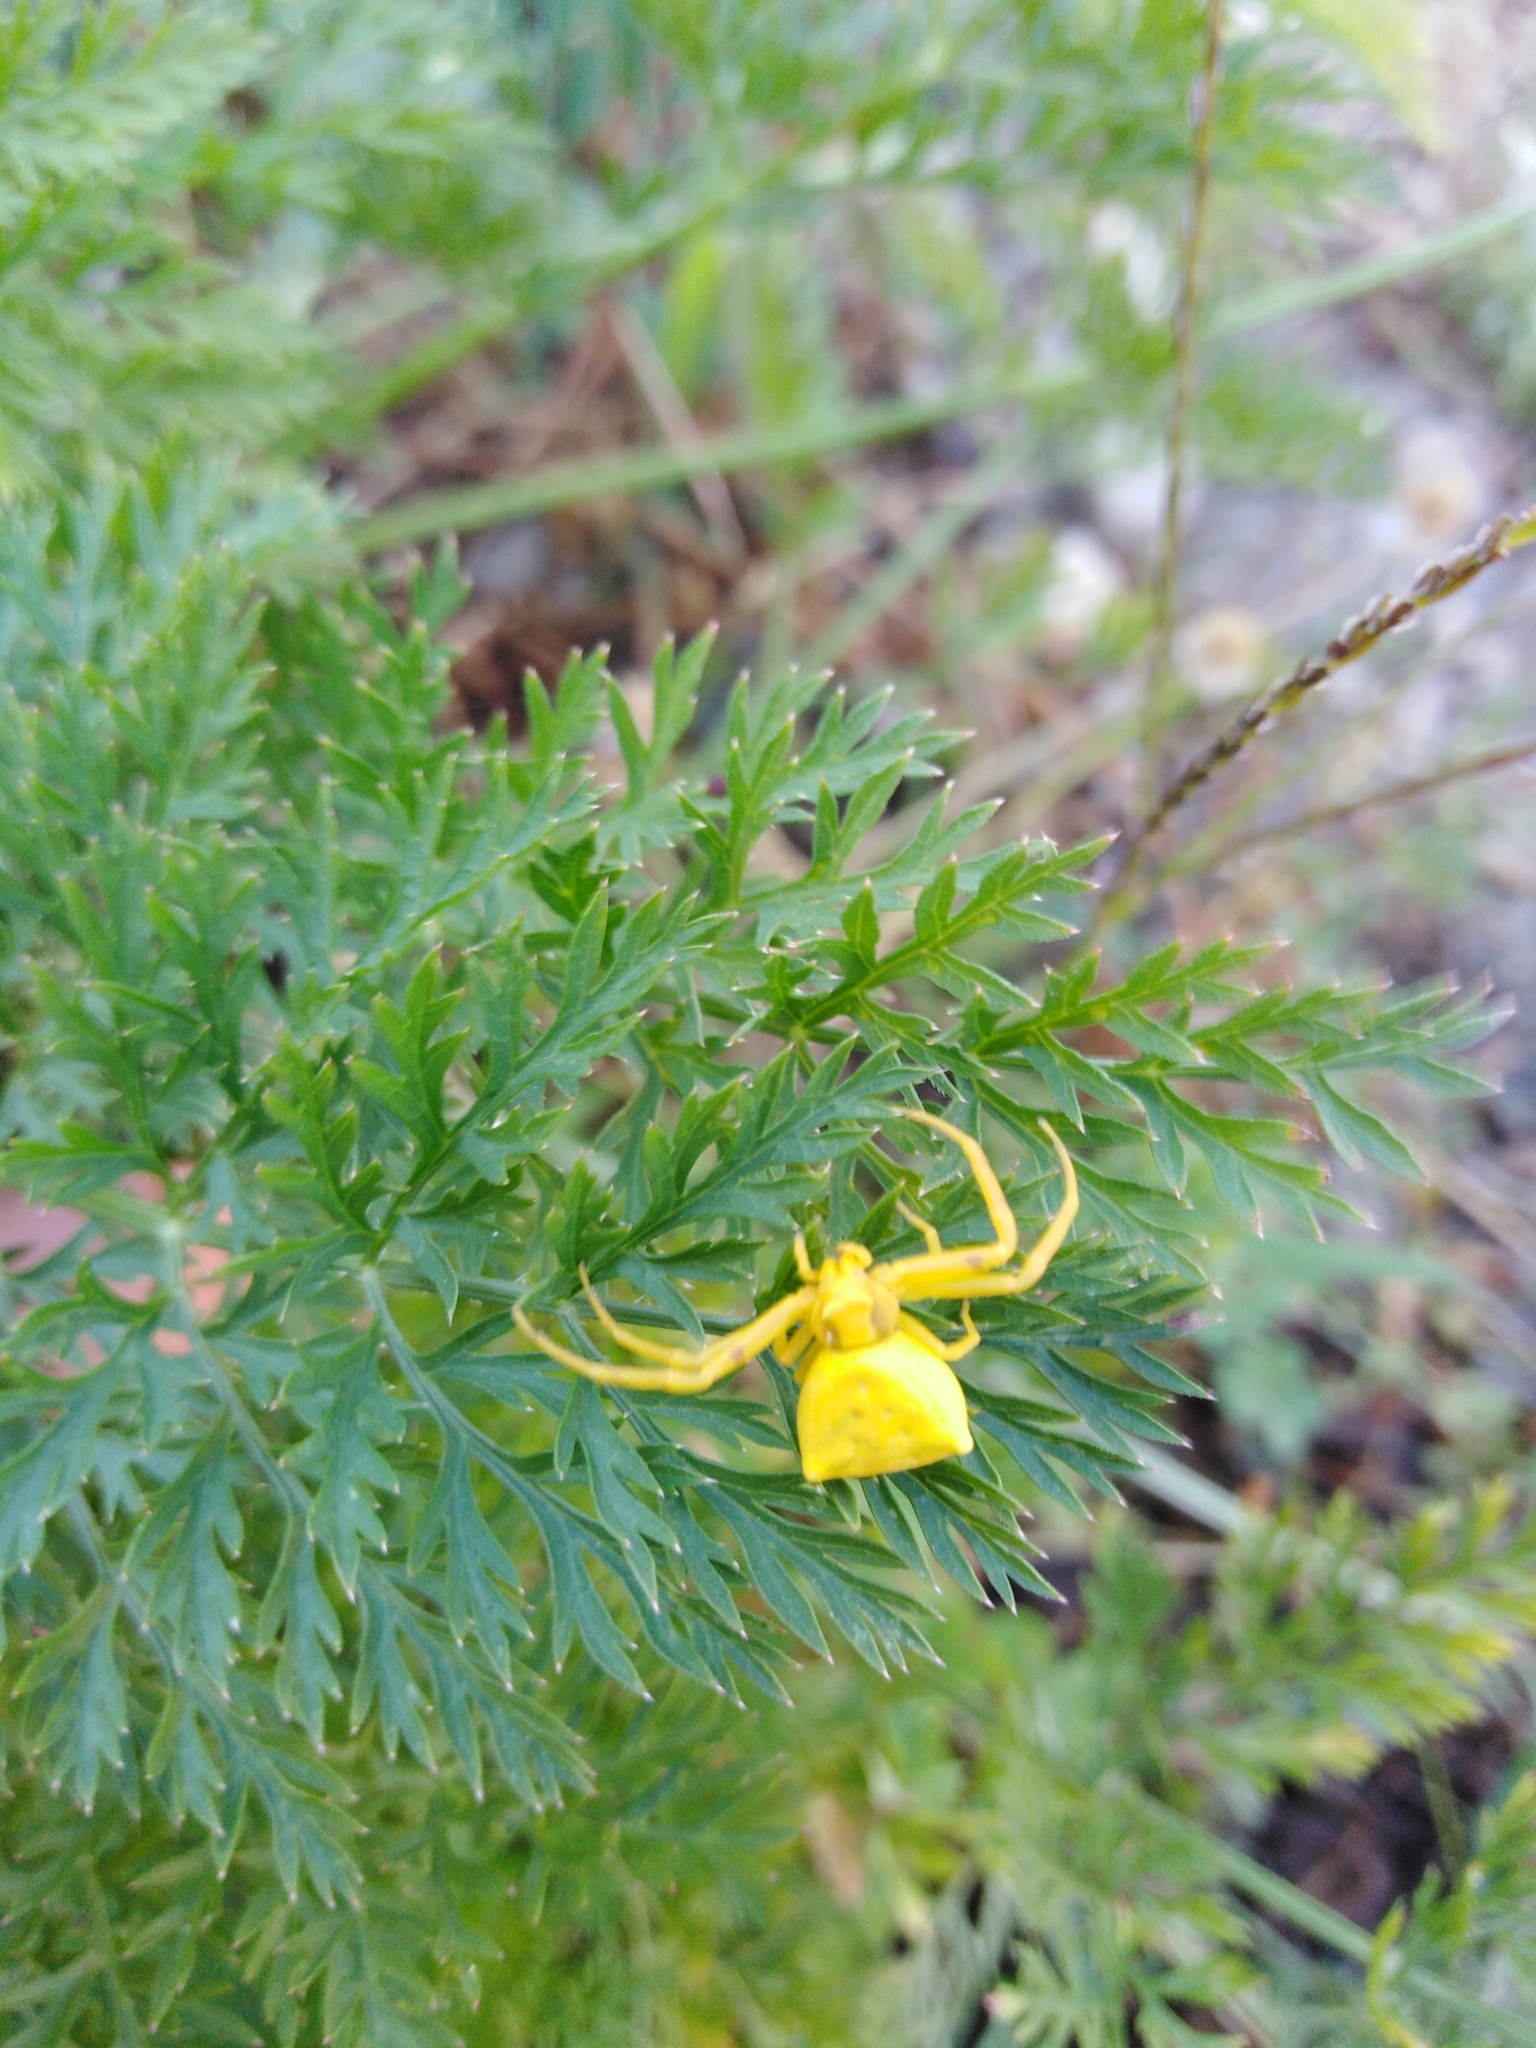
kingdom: Animalia
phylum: Arthropoda
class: Arachnida
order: Araneae
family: Thomisidae
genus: Thomisus
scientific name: Thomisus onustus
